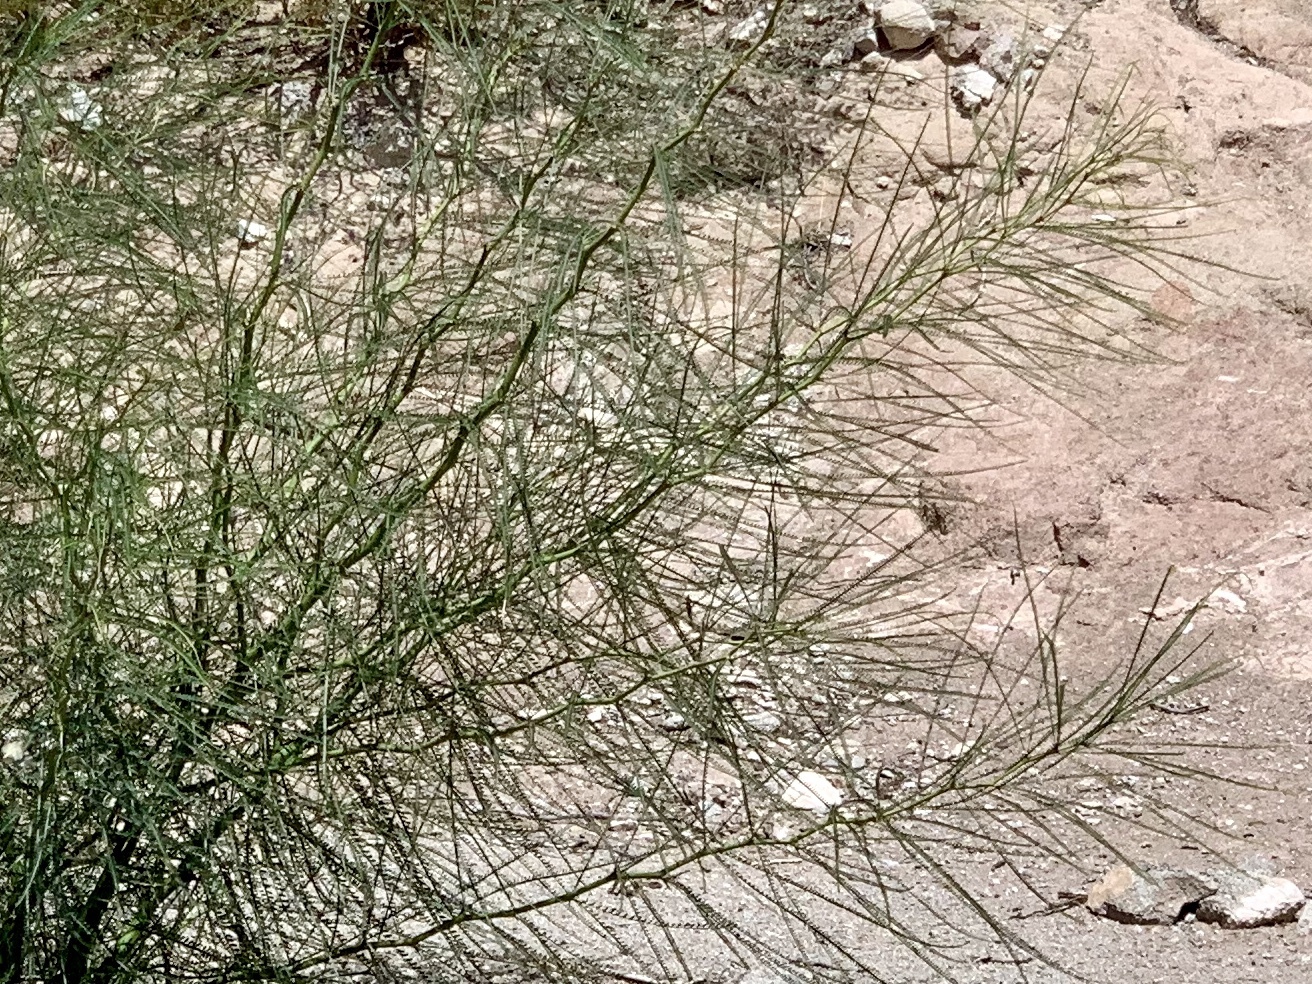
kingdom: Plantae
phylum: Tracheophyta
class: Magnoliopsida
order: Fabales
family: Fabaceae
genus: Parkinsonia
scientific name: Parkinsonia aculeata
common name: Jerusalem thorn
